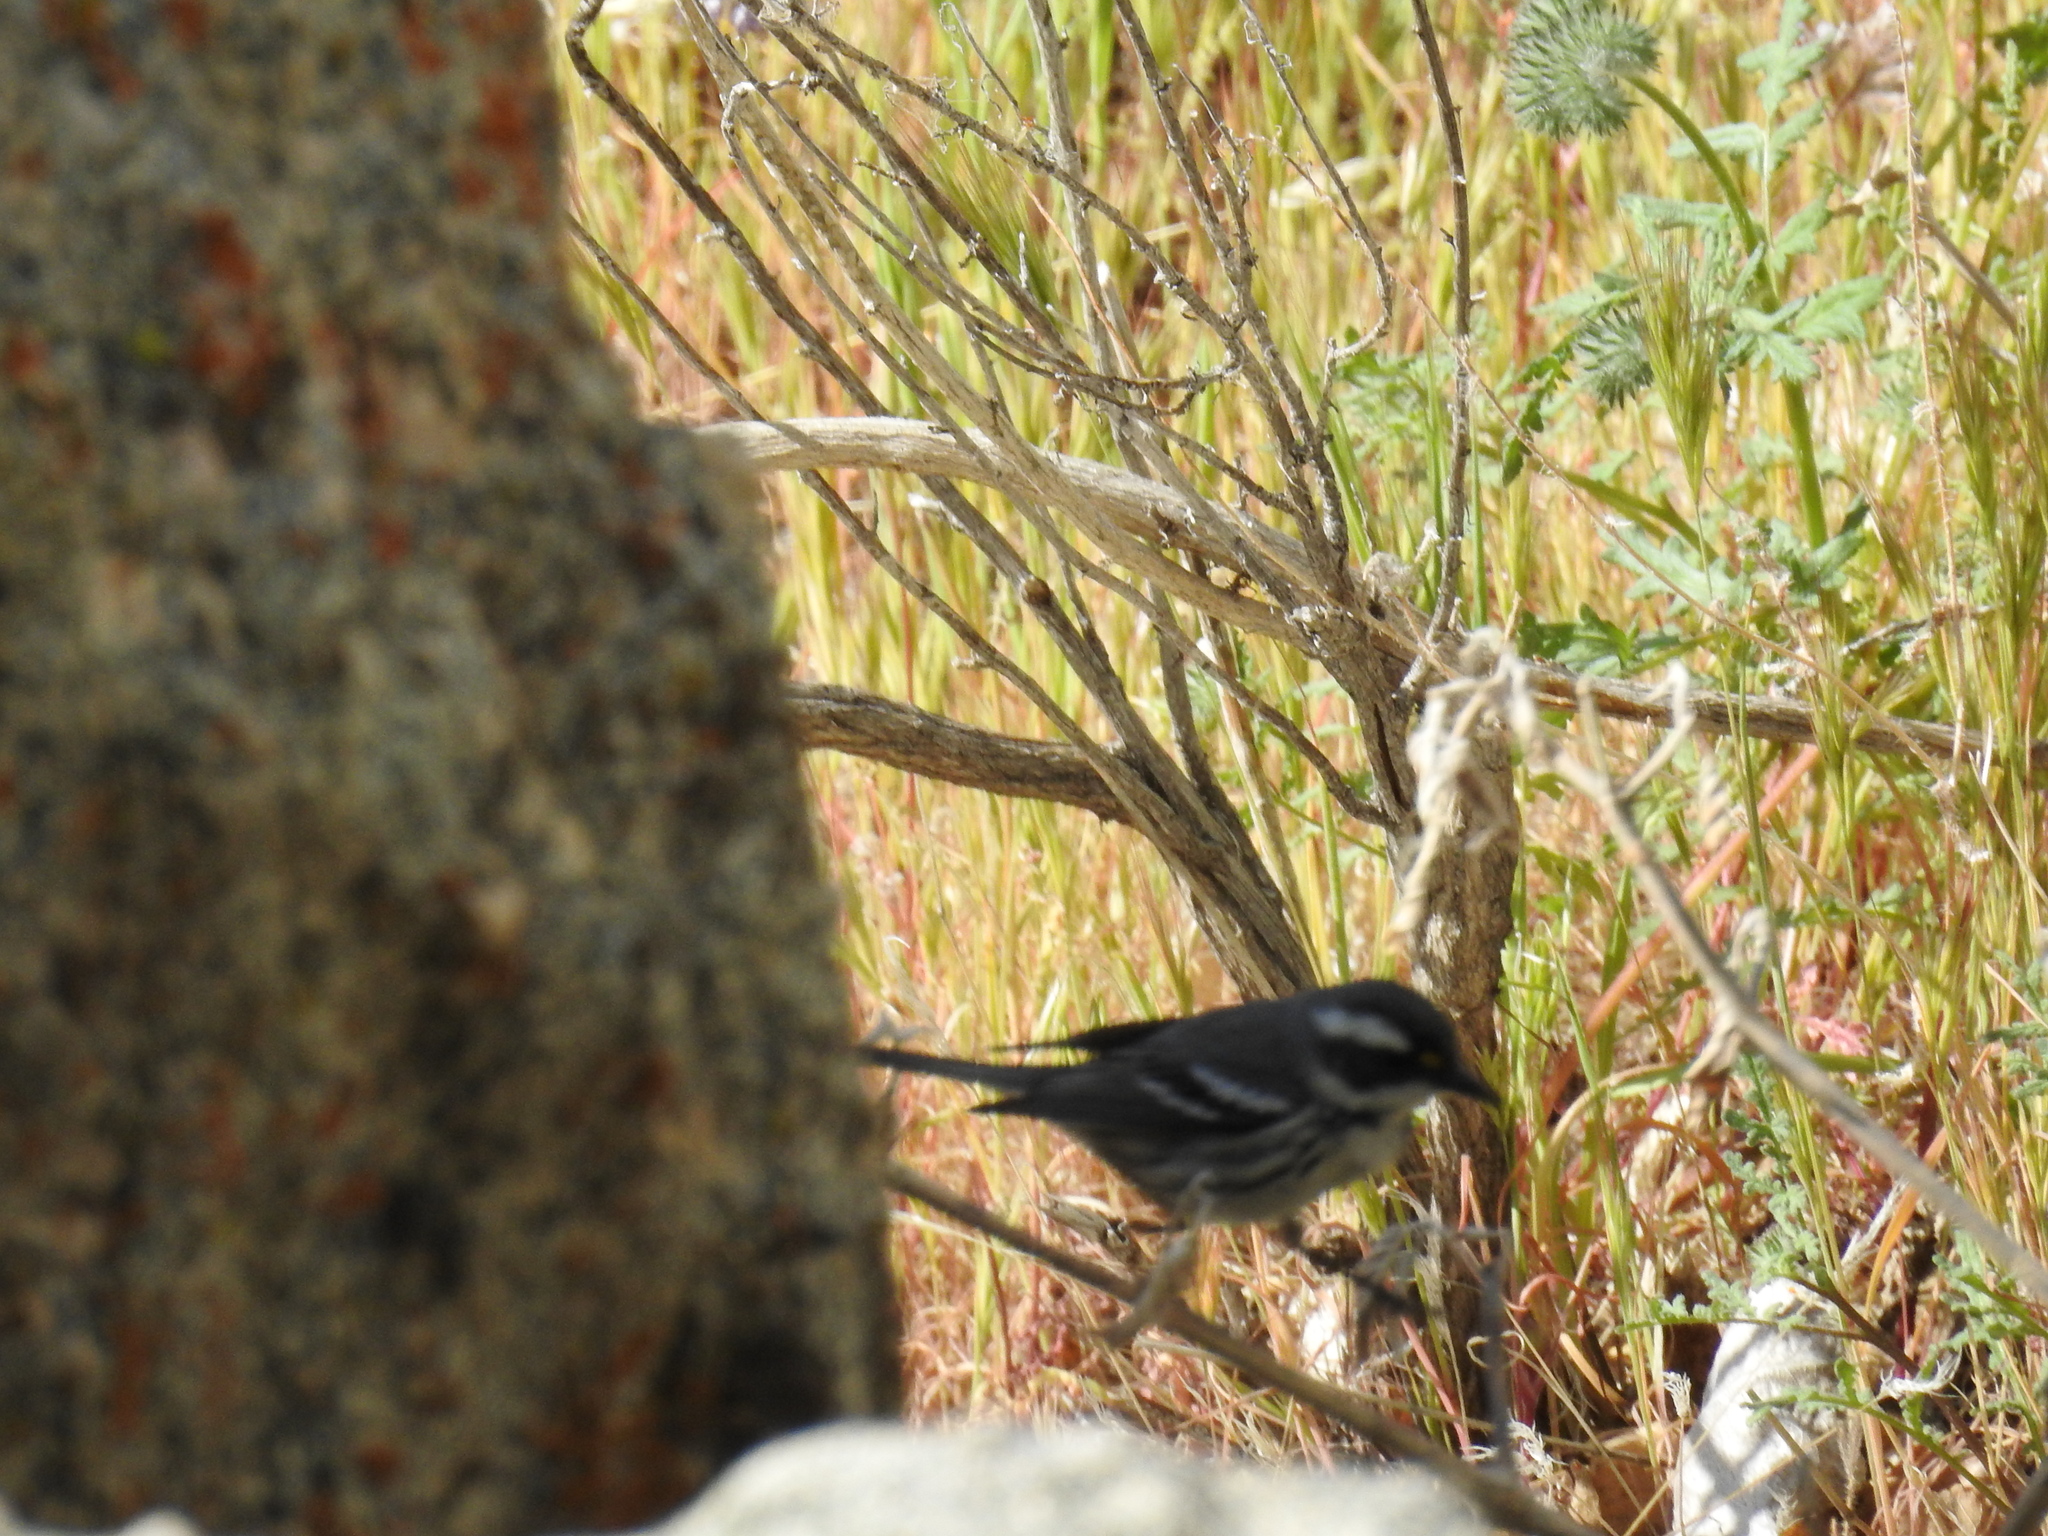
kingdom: Animalia
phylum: Chordata
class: Aves
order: Passeriformes
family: Parulidae
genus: Setophaga
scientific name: Setophaga nigrescens
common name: Black-throated gray warbler
